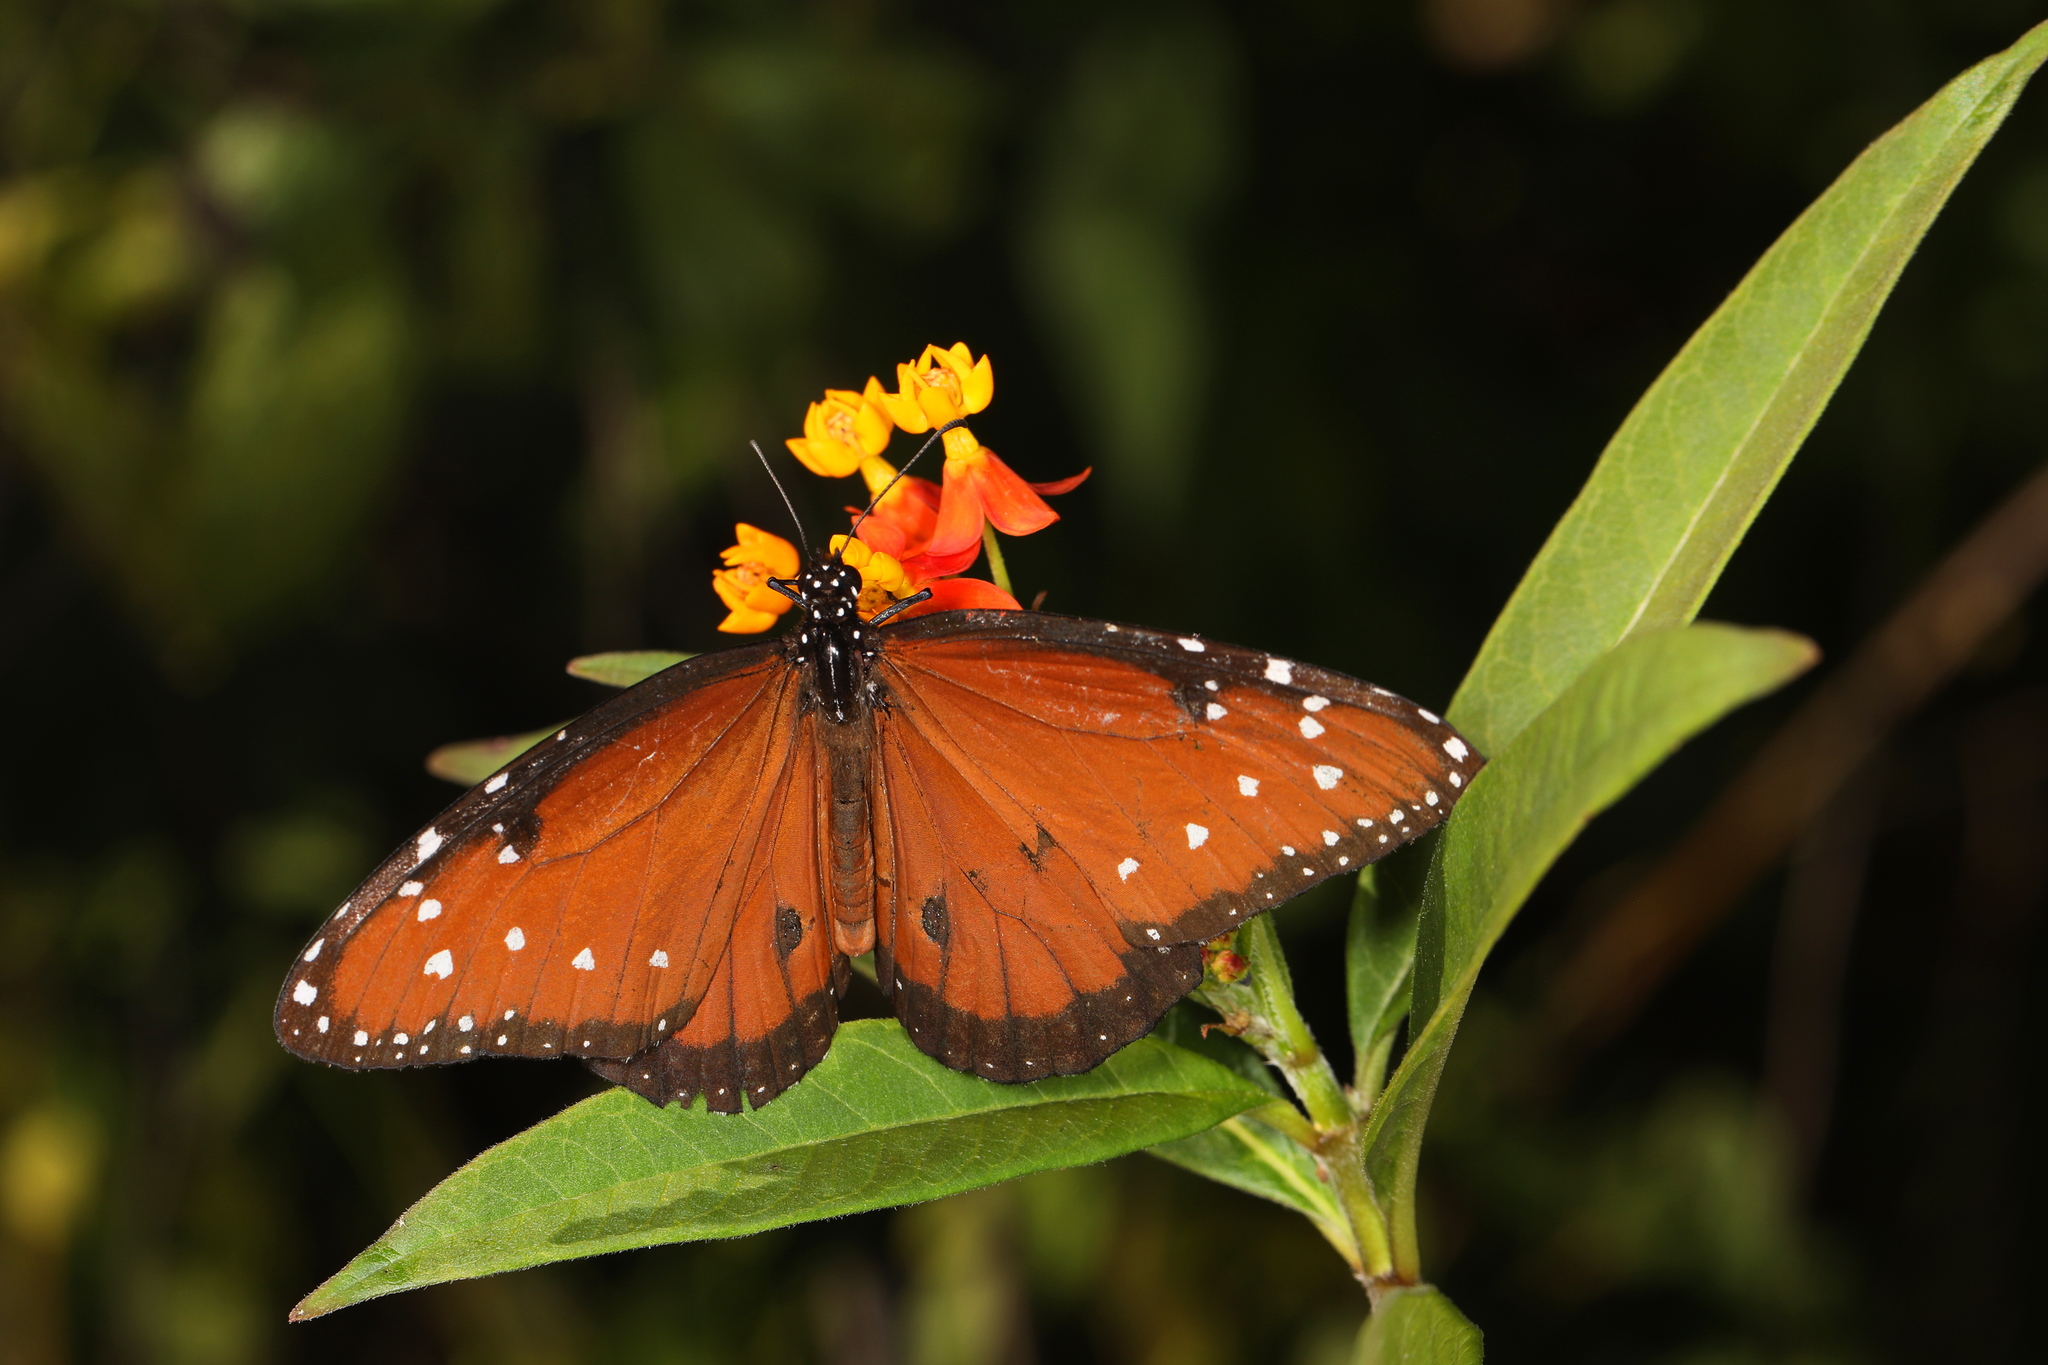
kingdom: Animalia
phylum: Arthropoda
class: Insecta
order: Lepidoptera
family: Nymphalidae
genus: Danaus
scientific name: Danaus gilippus
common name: Queen
